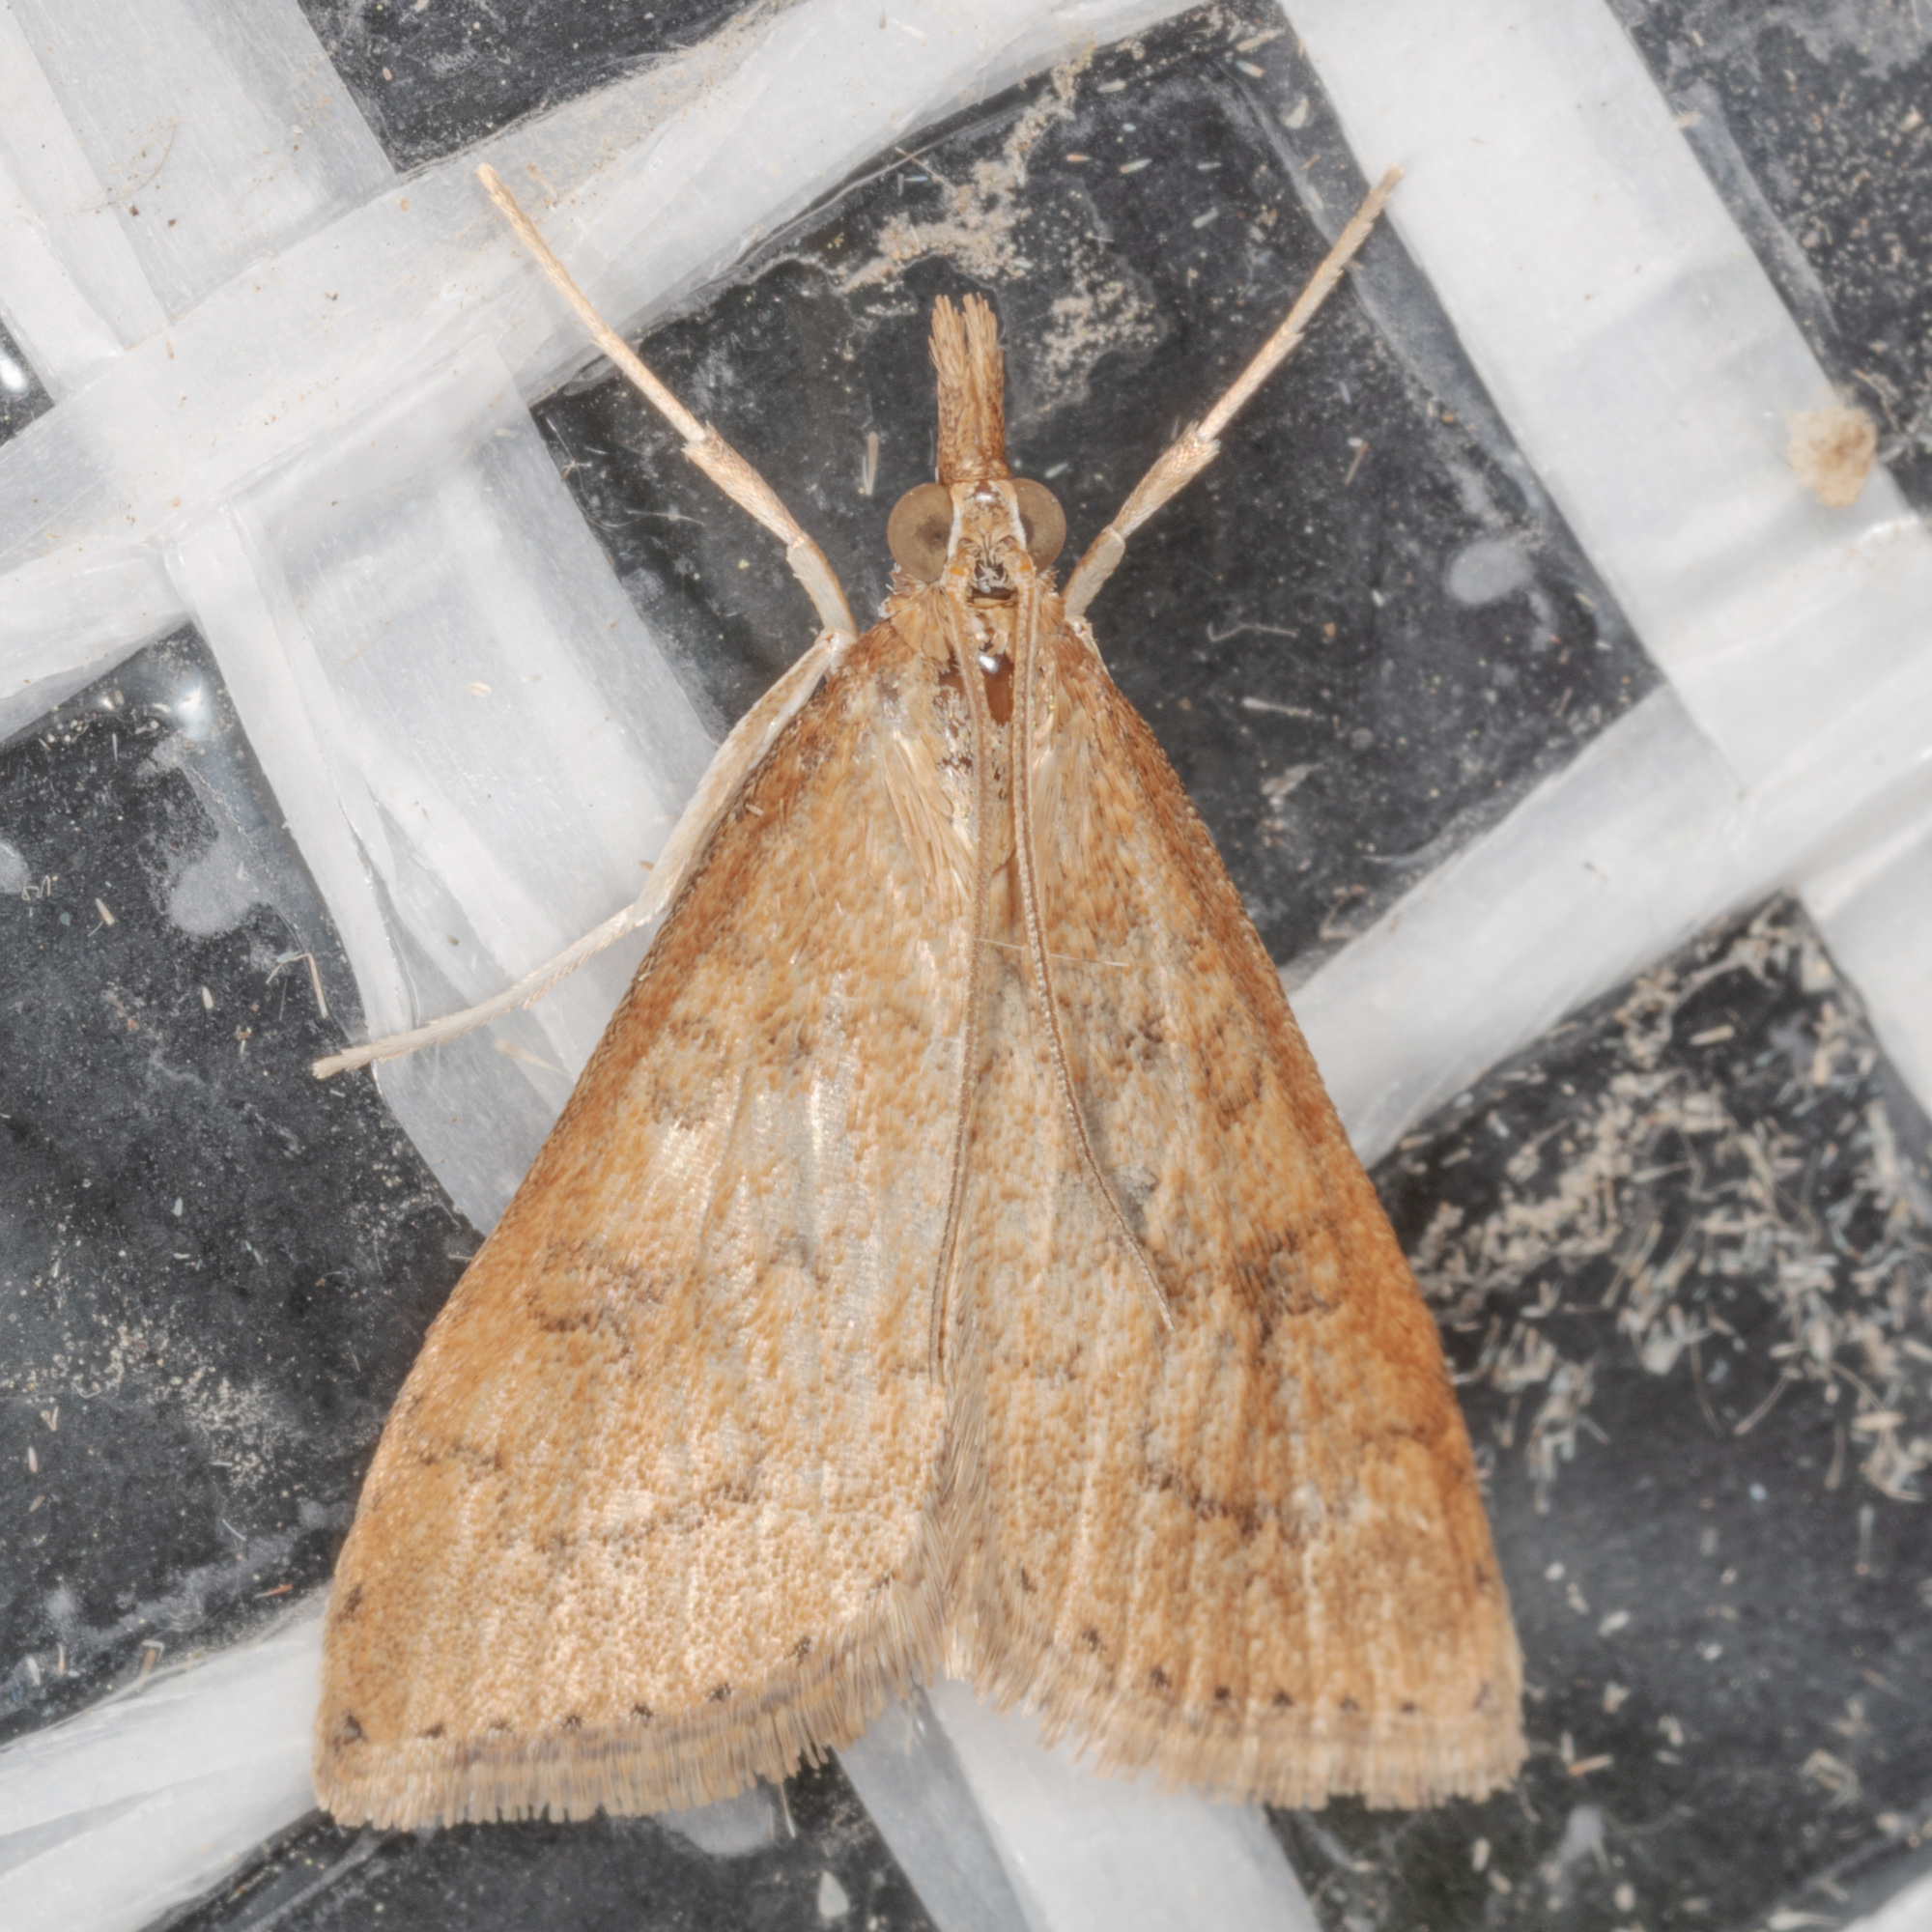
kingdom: Animalia
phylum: Arthropoda
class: Insecta
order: Lepidoptera
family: Crambidae
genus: Udea
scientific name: Udea rubigalis
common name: Celery leaftier moth
